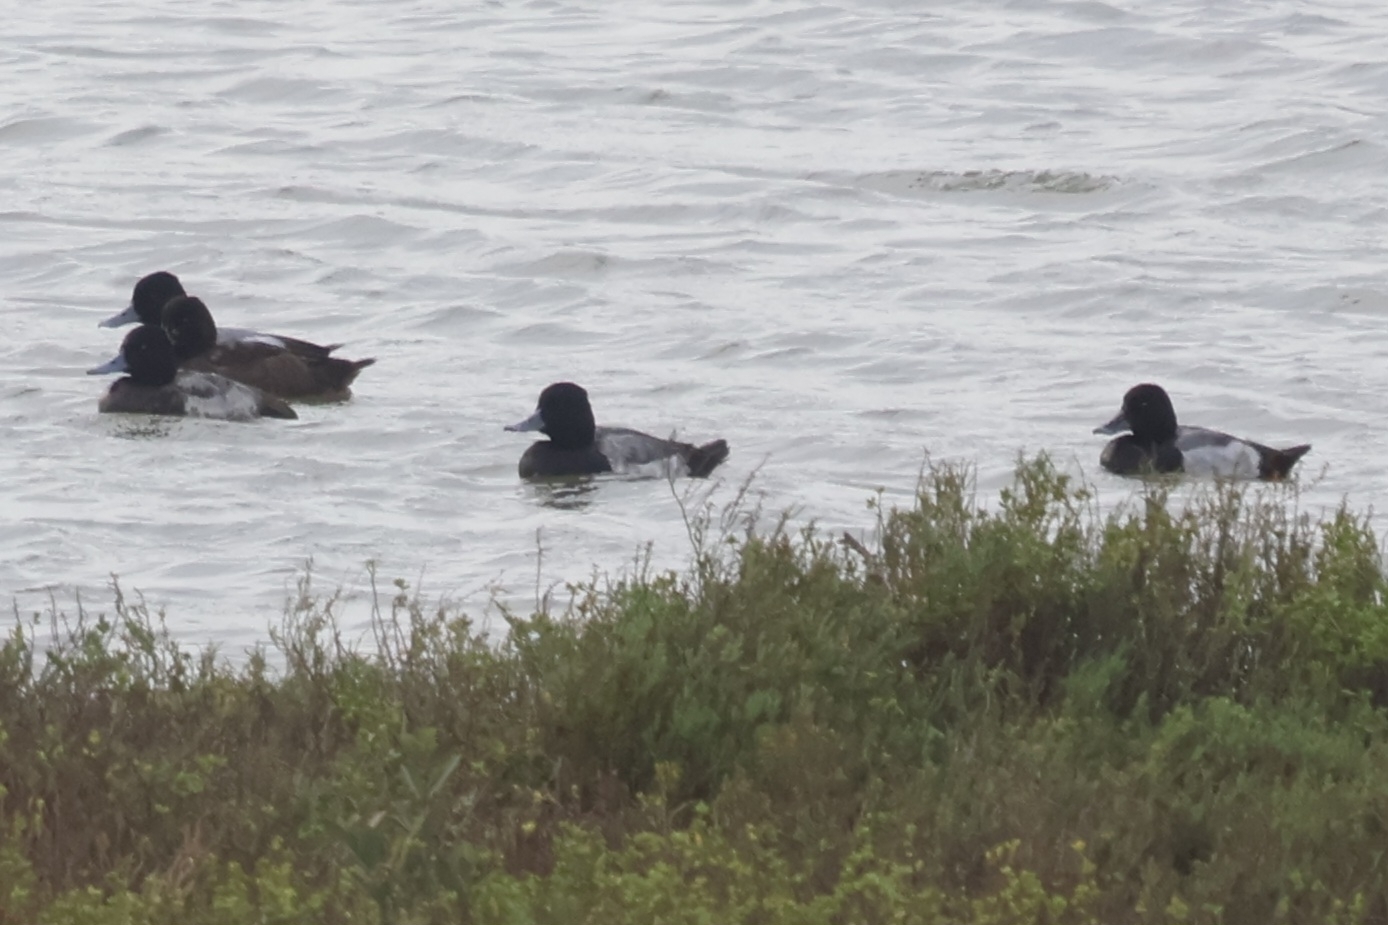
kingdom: Animalia
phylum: Chordata
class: Aves
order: Anseriformes
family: Anatidae
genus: Aythya
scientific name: Aythya affinis
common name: Lesser scaup
